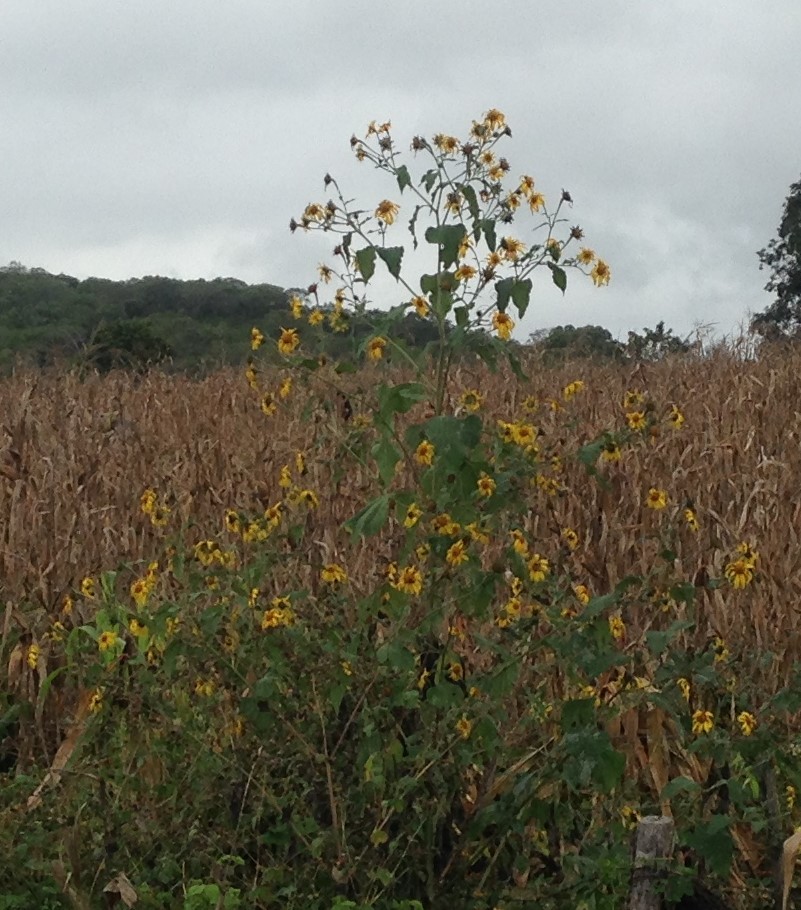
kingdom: Plantae
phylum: Tracheophyta
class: Magnoliopsida
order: Asterales
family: Asteraceae
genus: Tithonia
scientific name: Tithonia tubaeformis
